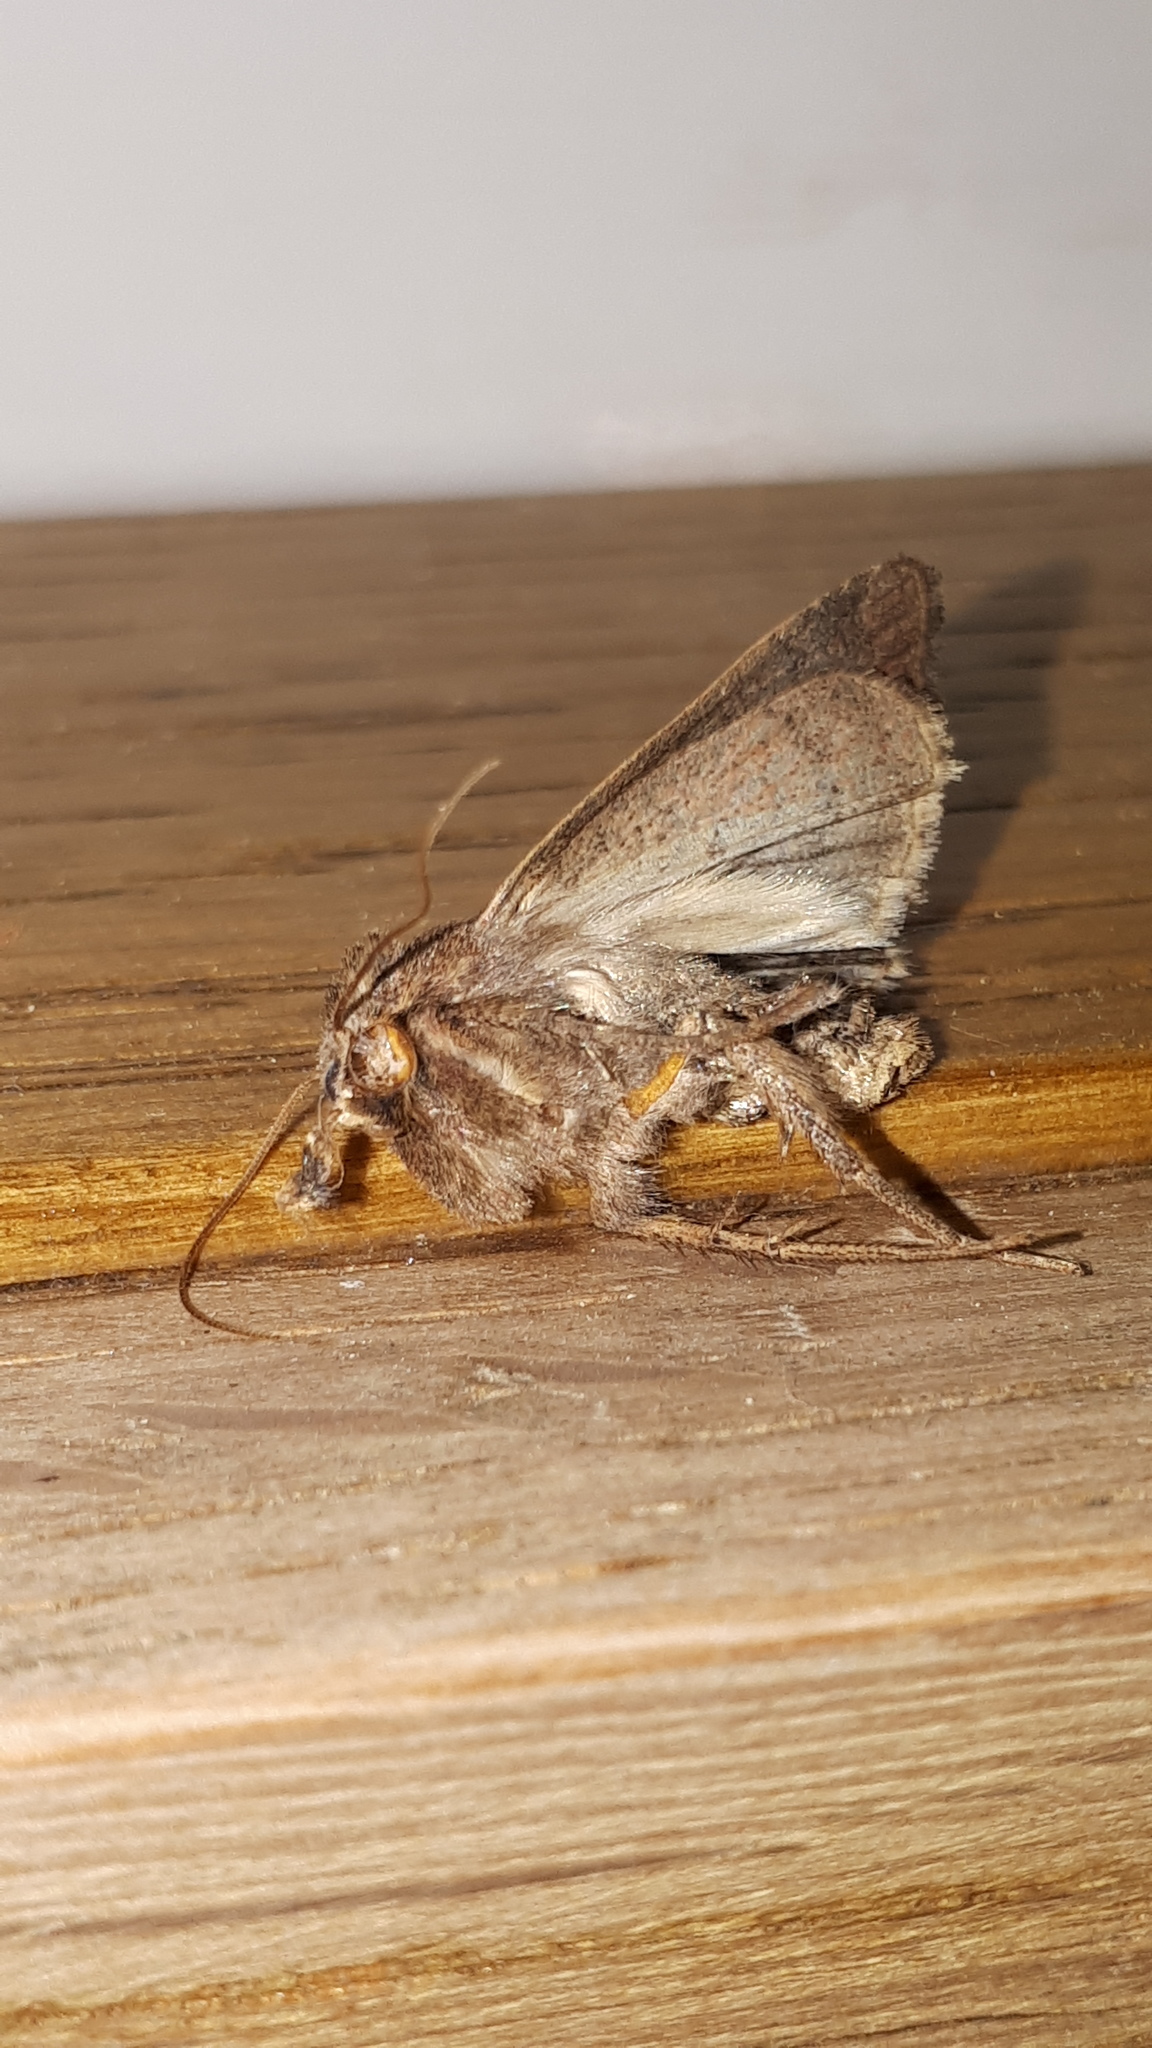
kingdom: Animalia
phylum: Arthropoda
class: Insecta
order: Lepidoptera
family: Noctuidae
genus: Xestia
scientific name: Xestia xanthographa
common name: Square-spot rustic
